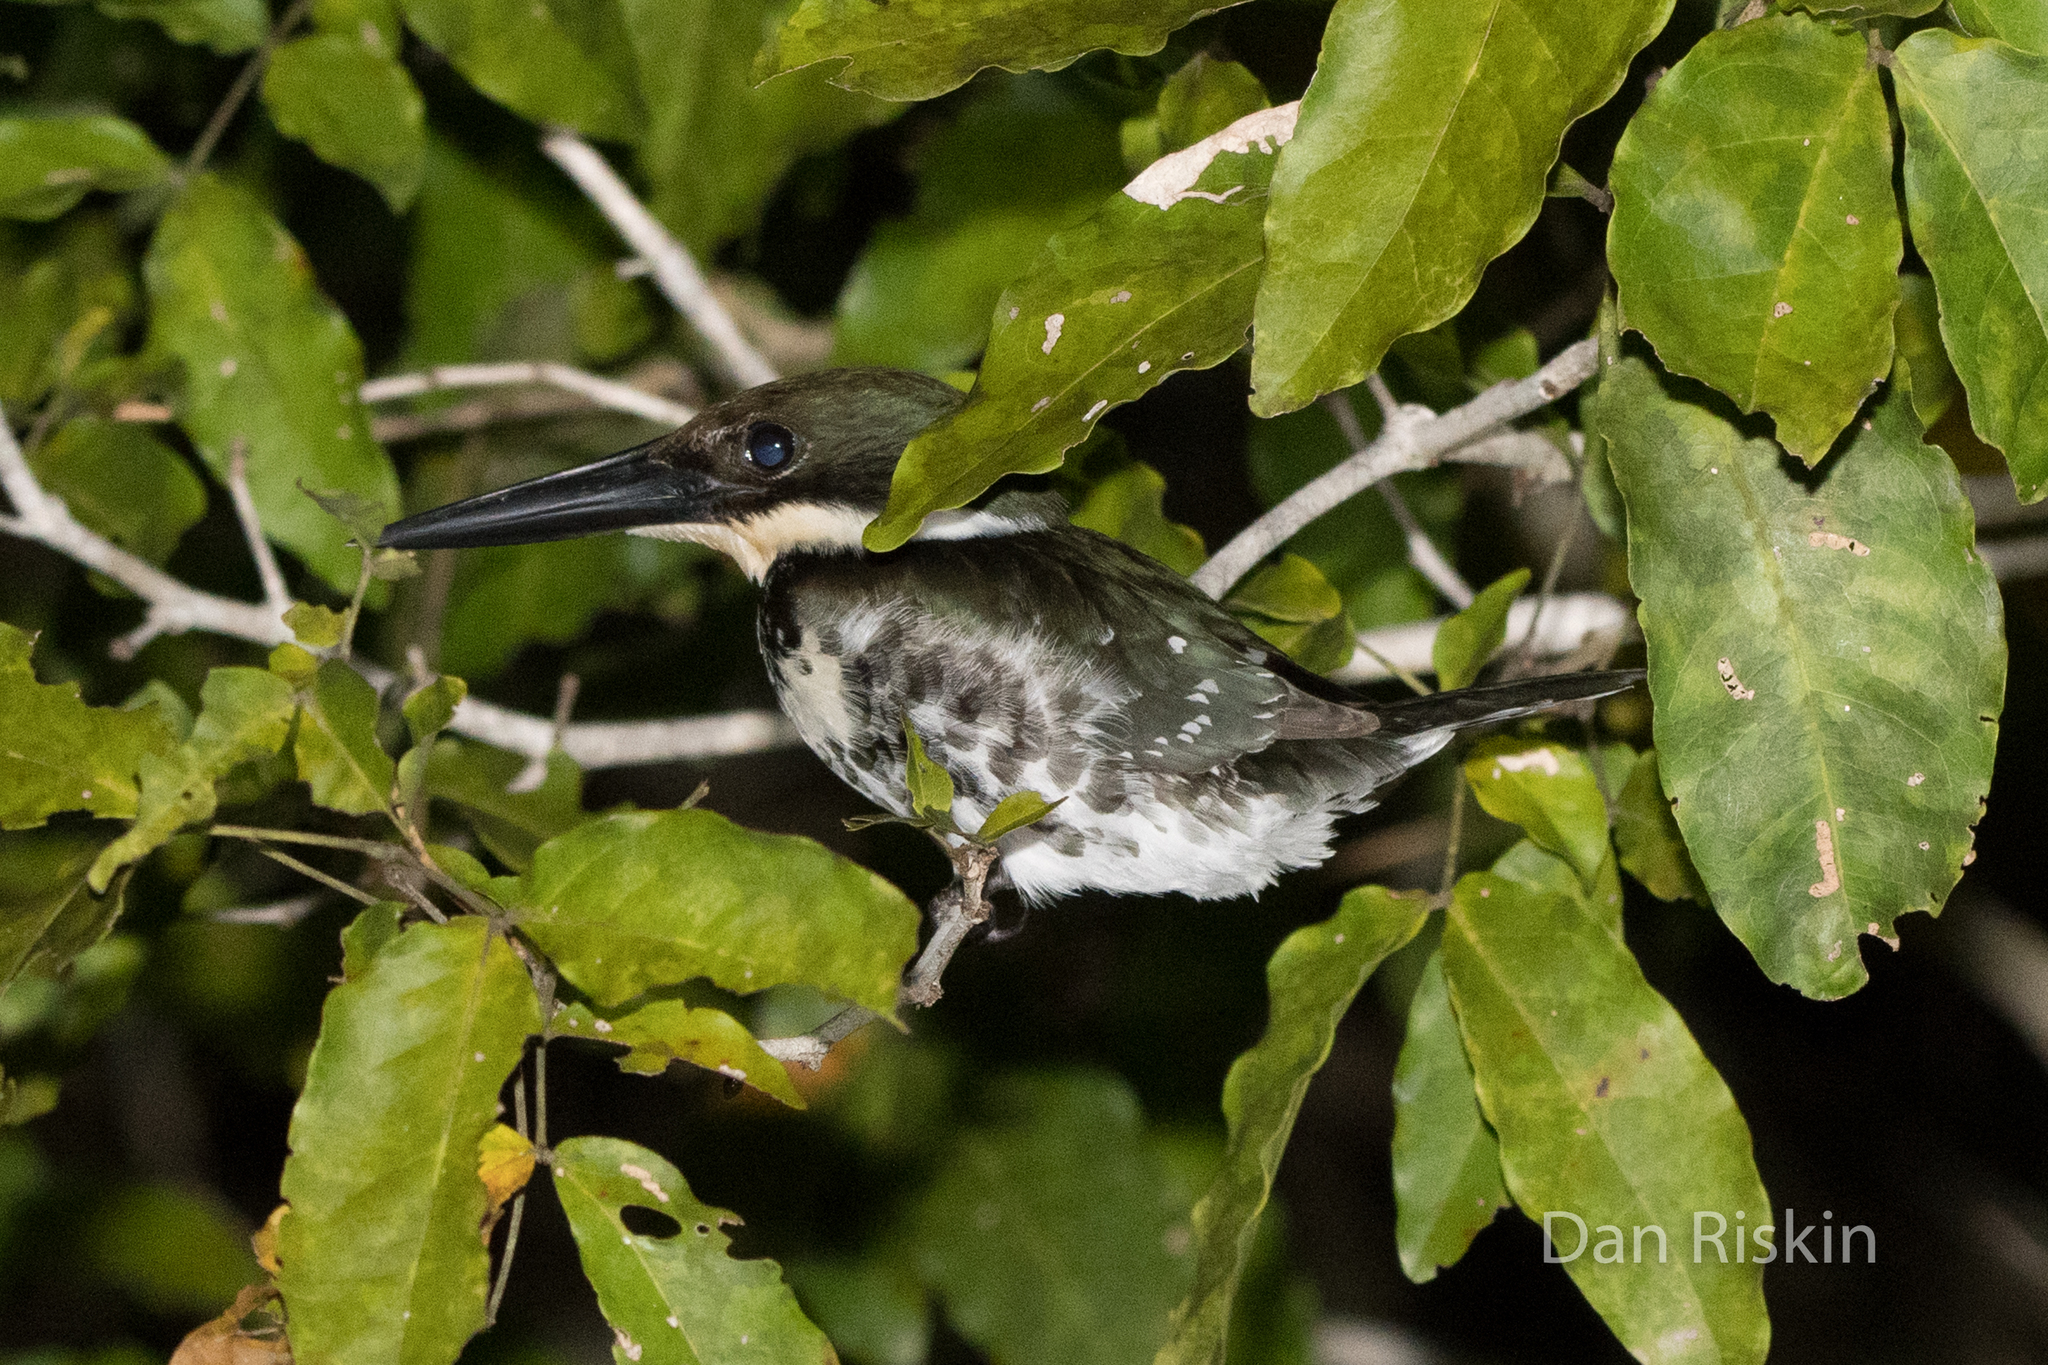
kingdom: Animalia
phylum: Chordata
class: Aves
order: Coraciiformes
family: Alcedinidae
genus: Chloroceryle
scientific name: Chloroceryle americana
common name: Green kingfisher
